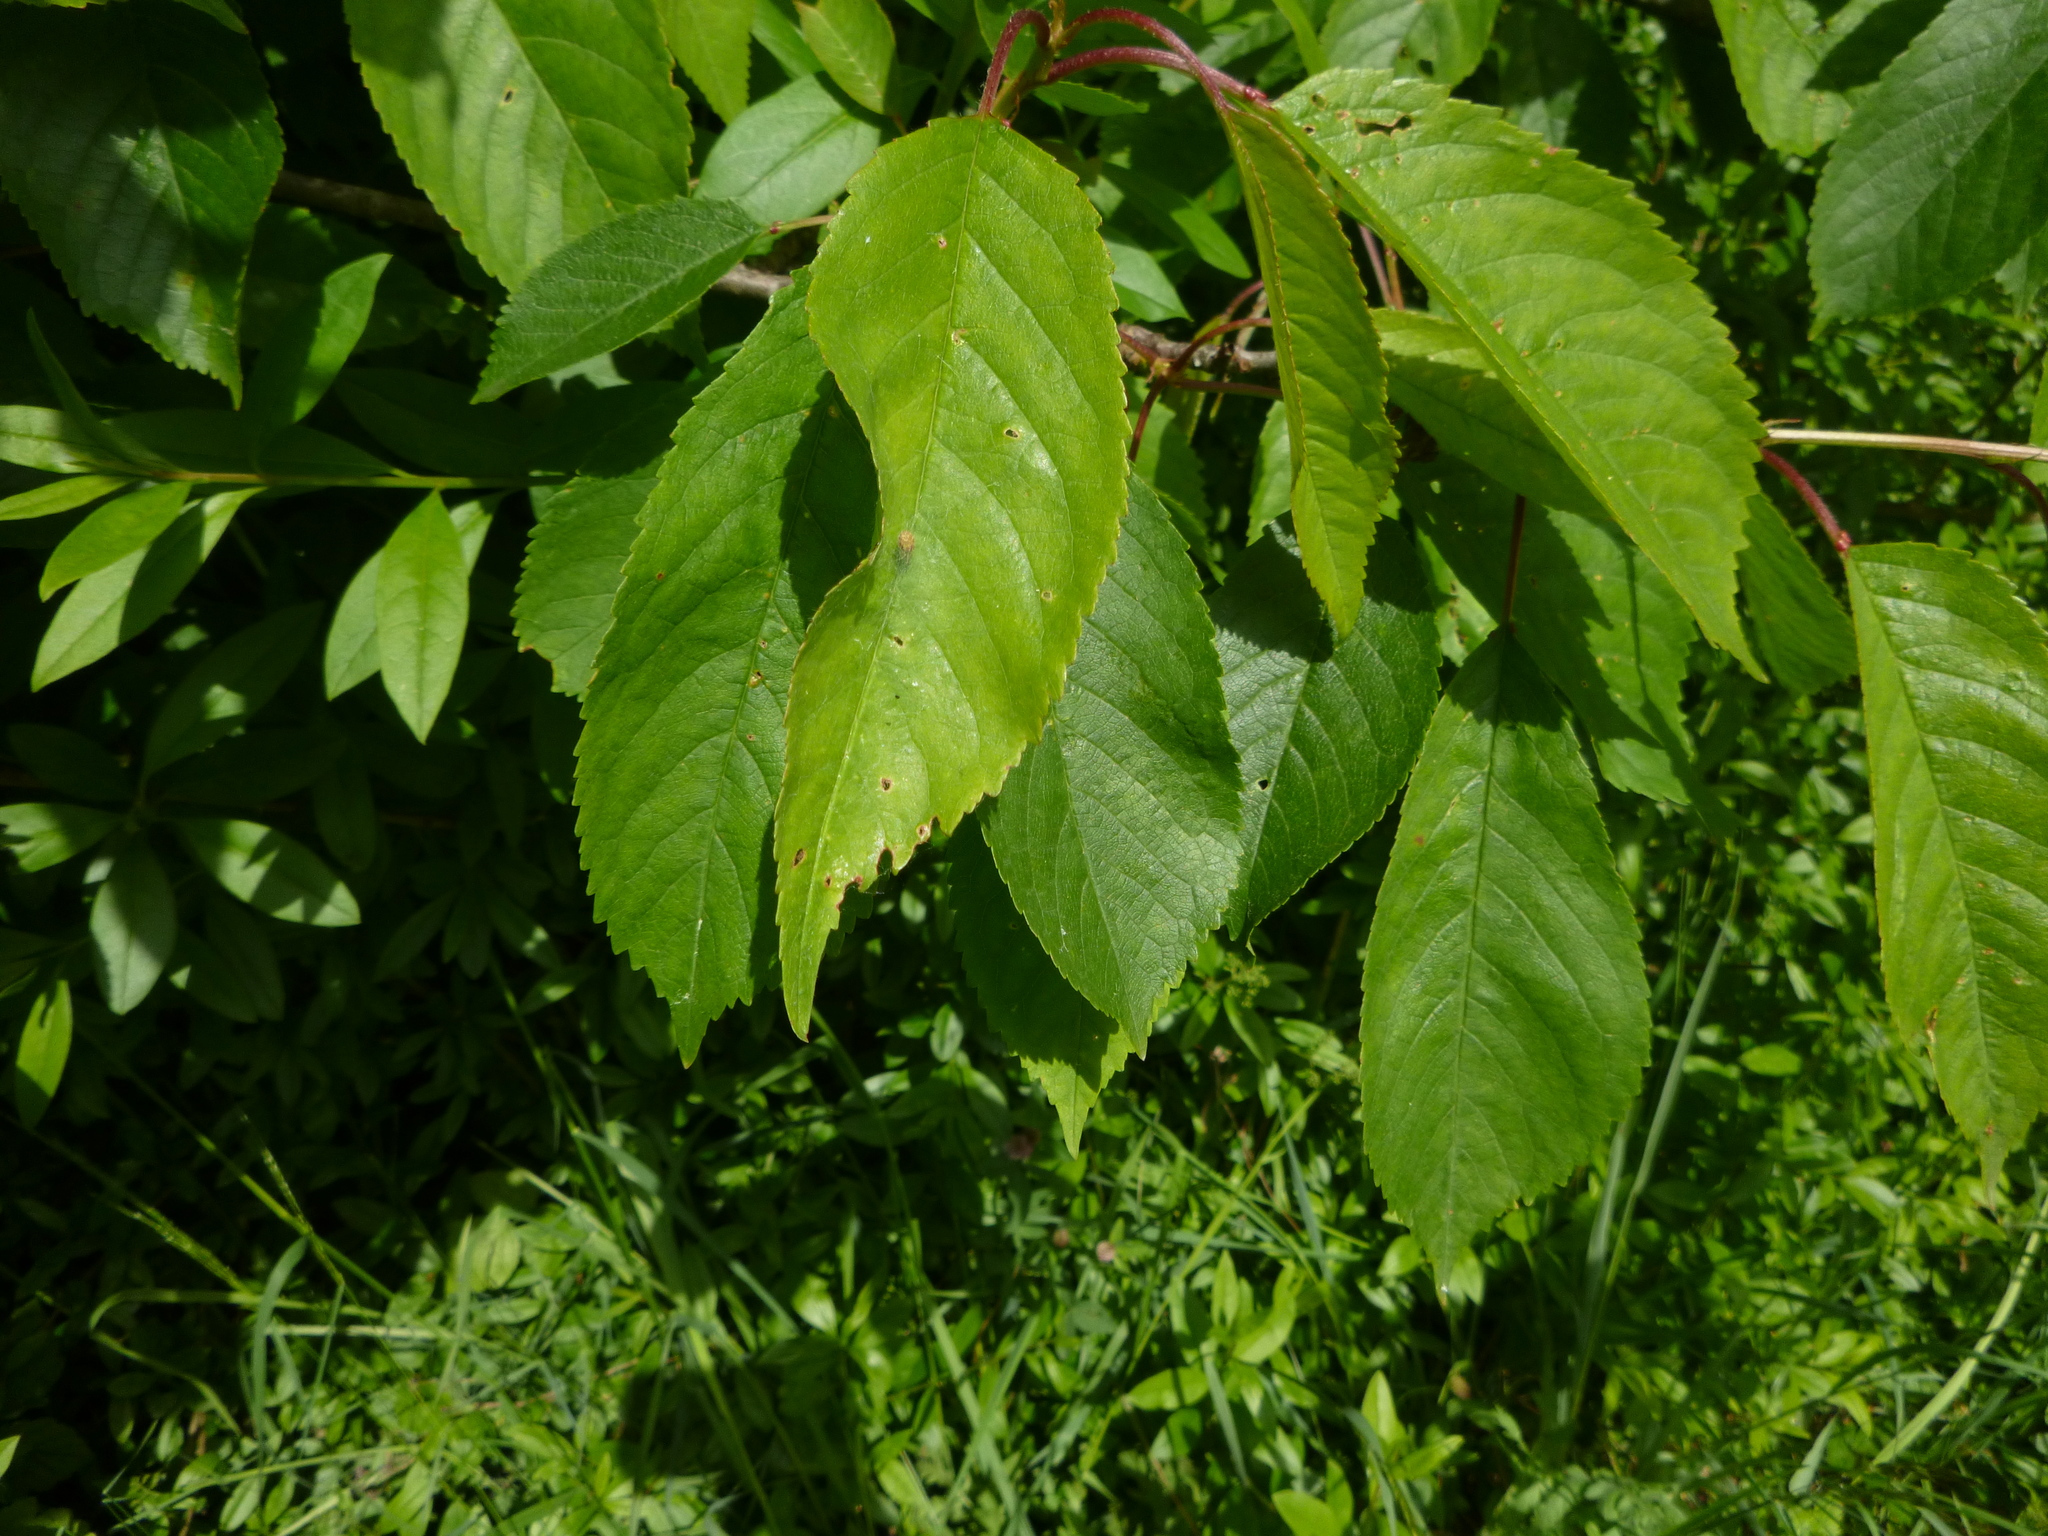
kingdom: Plantae
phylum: Tracheophyta
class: Magnoliopsida
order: Rosales
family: Rosaceae
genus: Prunus
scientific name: Prunus avium
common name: Sweet cherry
